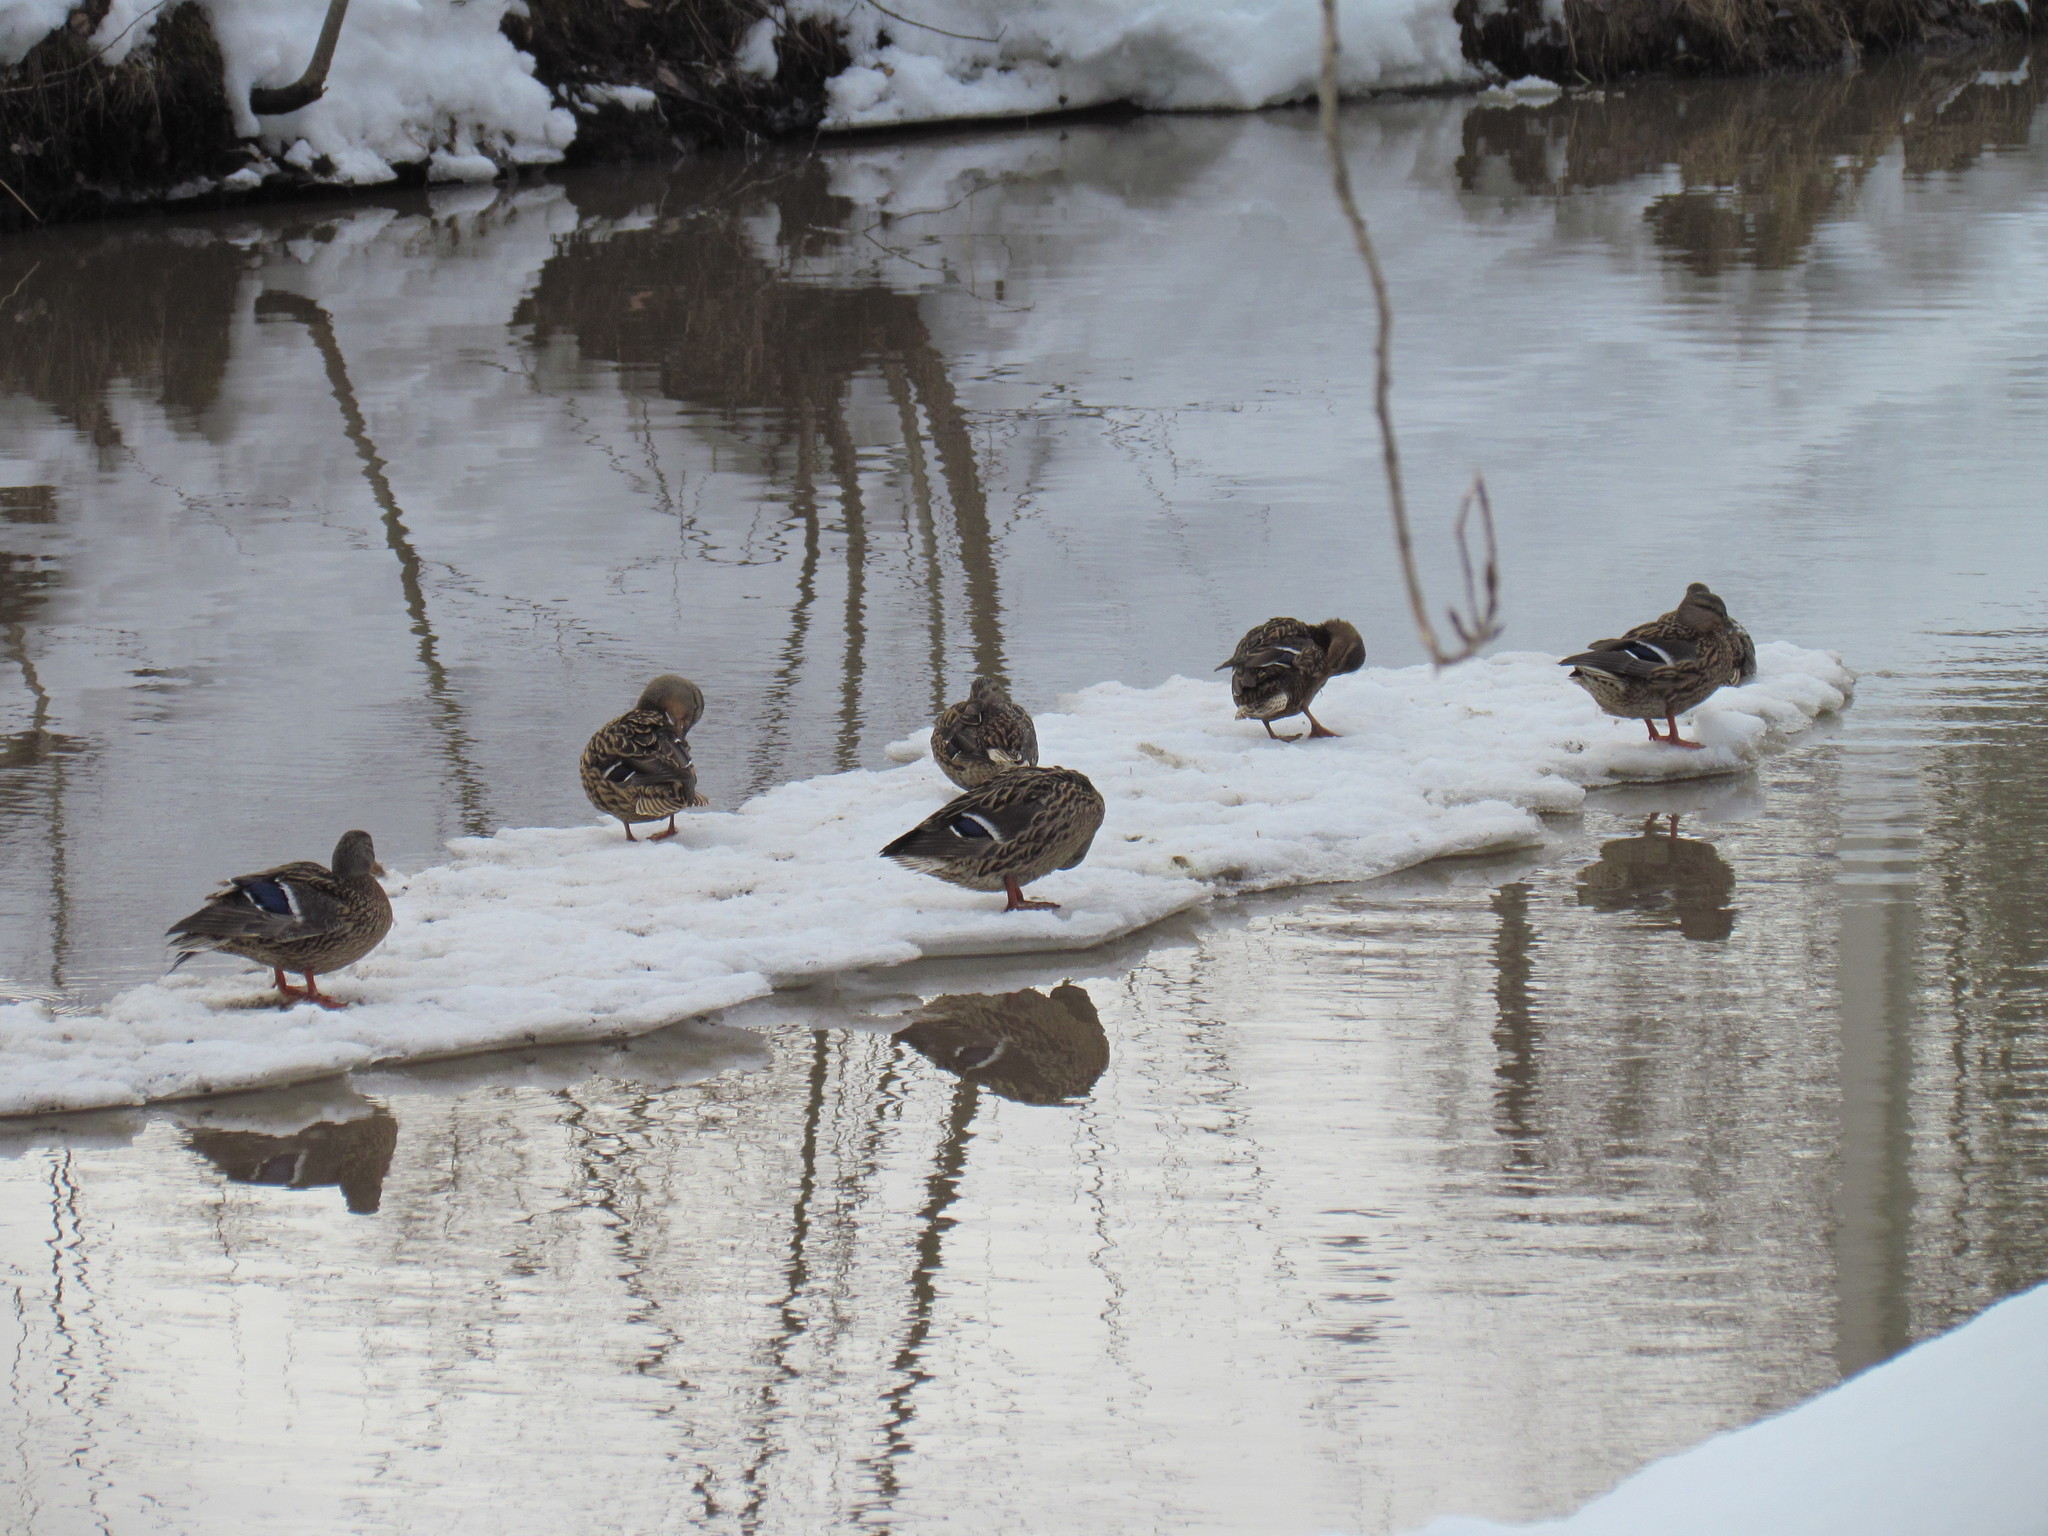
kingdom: Animalia
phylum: Chordata
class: Aves
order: Anseriformes
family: Anatidae
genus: Anas
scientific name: Anas platyrhynchos
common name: Mallard
